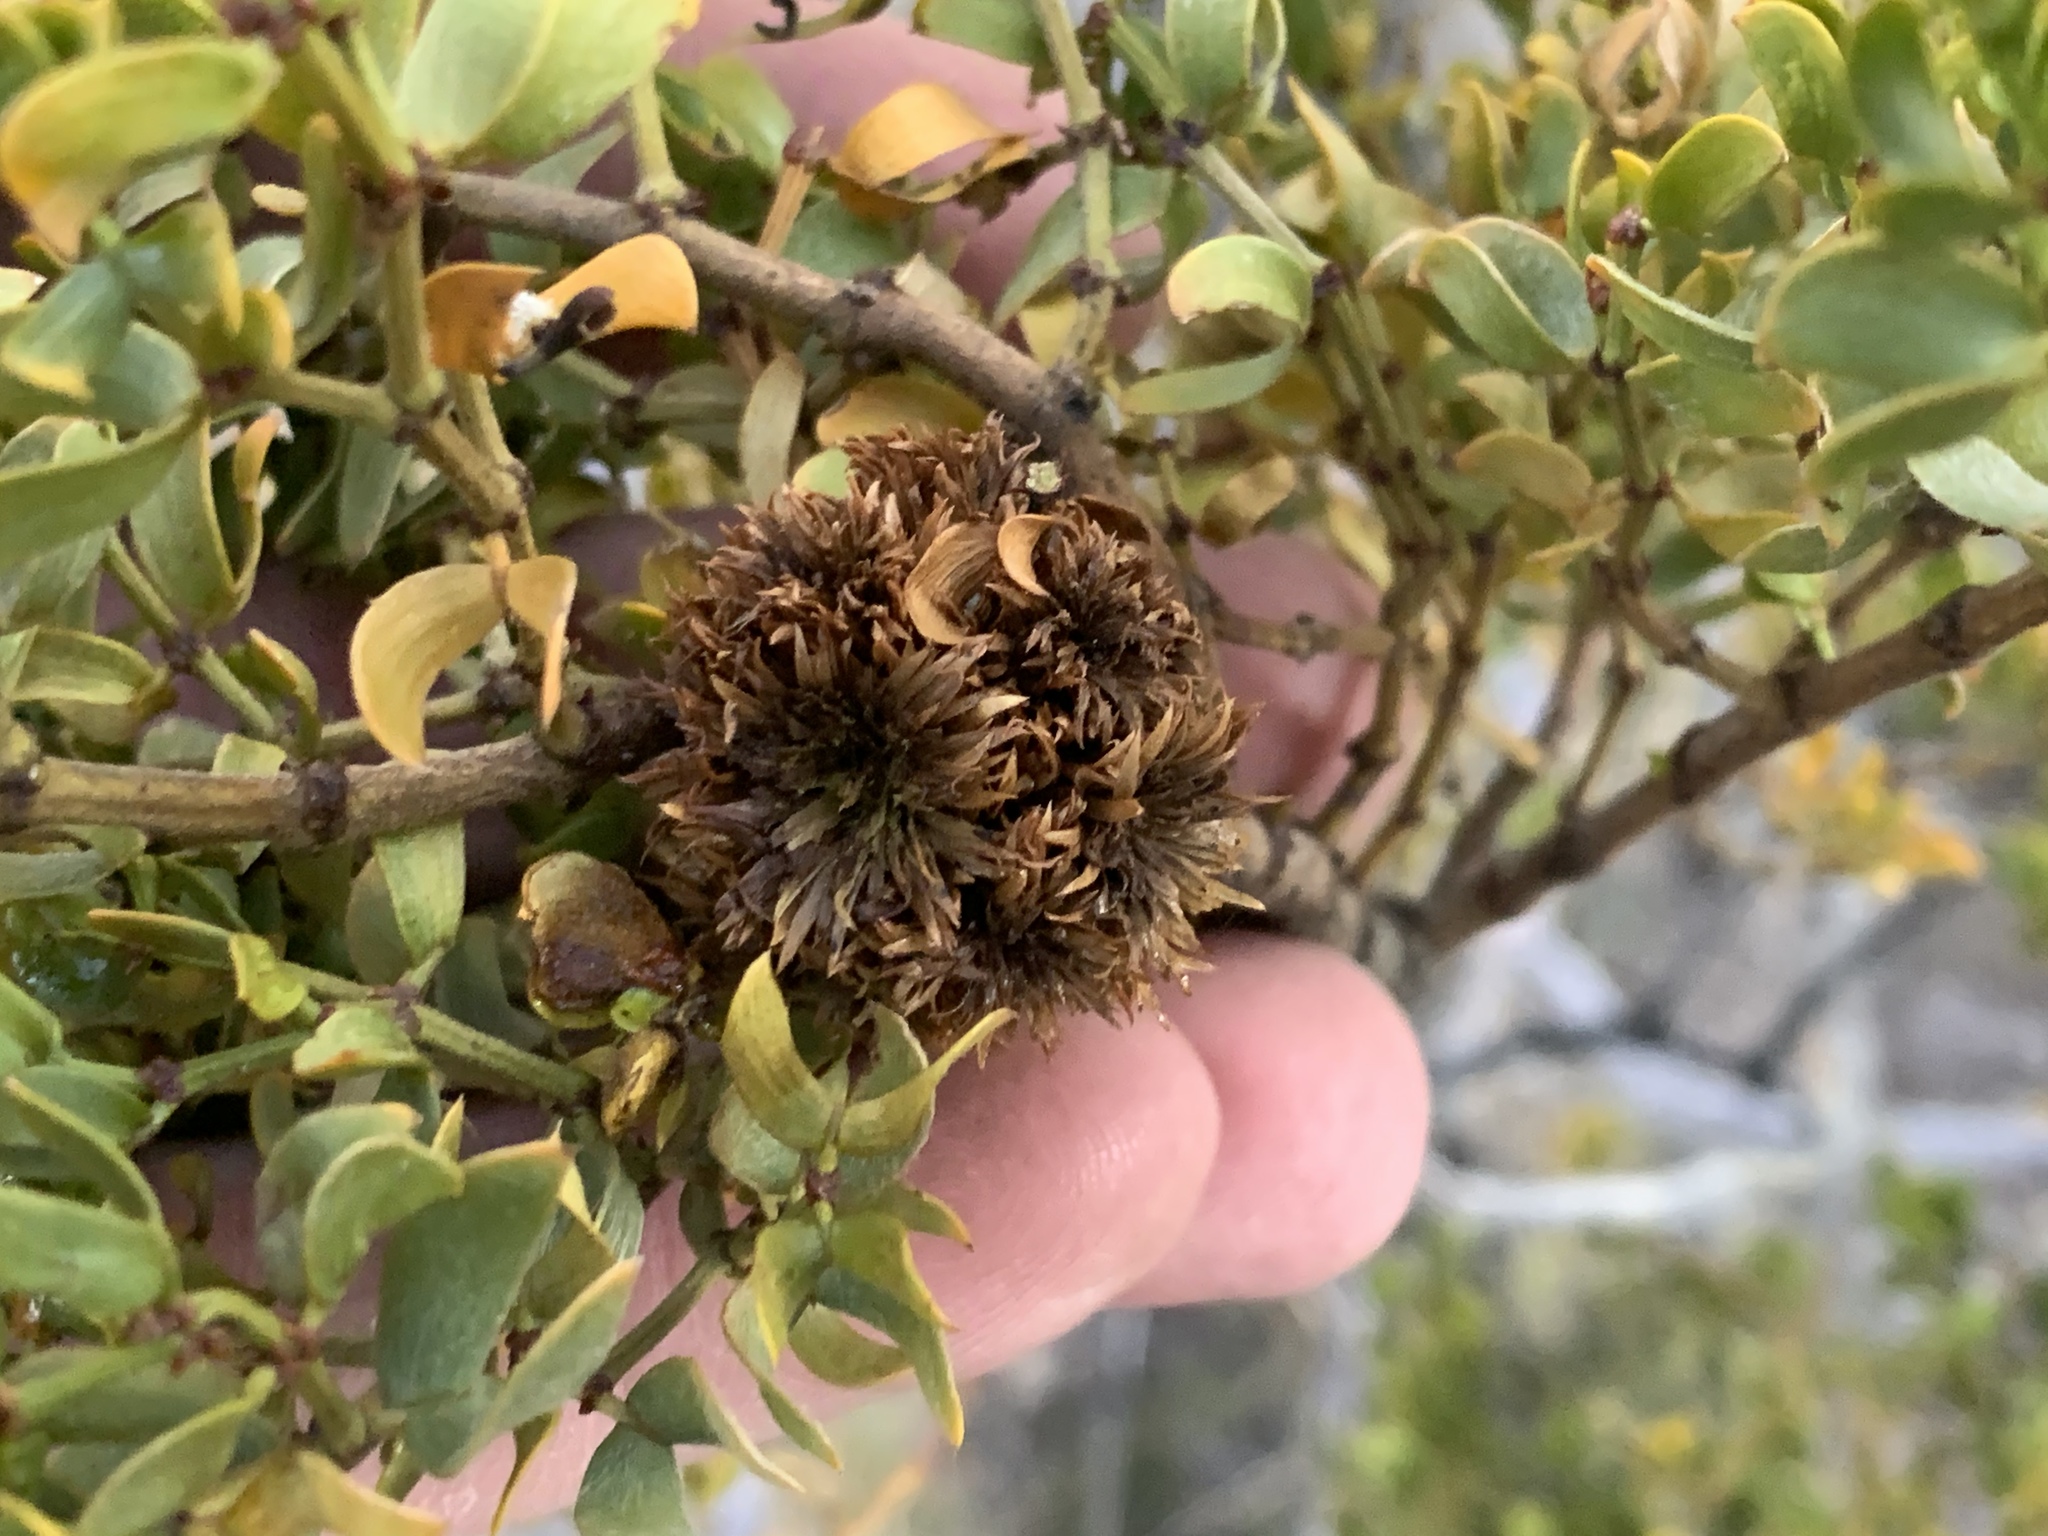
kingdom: Animalia
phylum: Arthropoda
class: Insecta
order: Diptera
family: Cecidomyiidae
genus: Asphondylia
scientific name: Asphondylia rosetta
